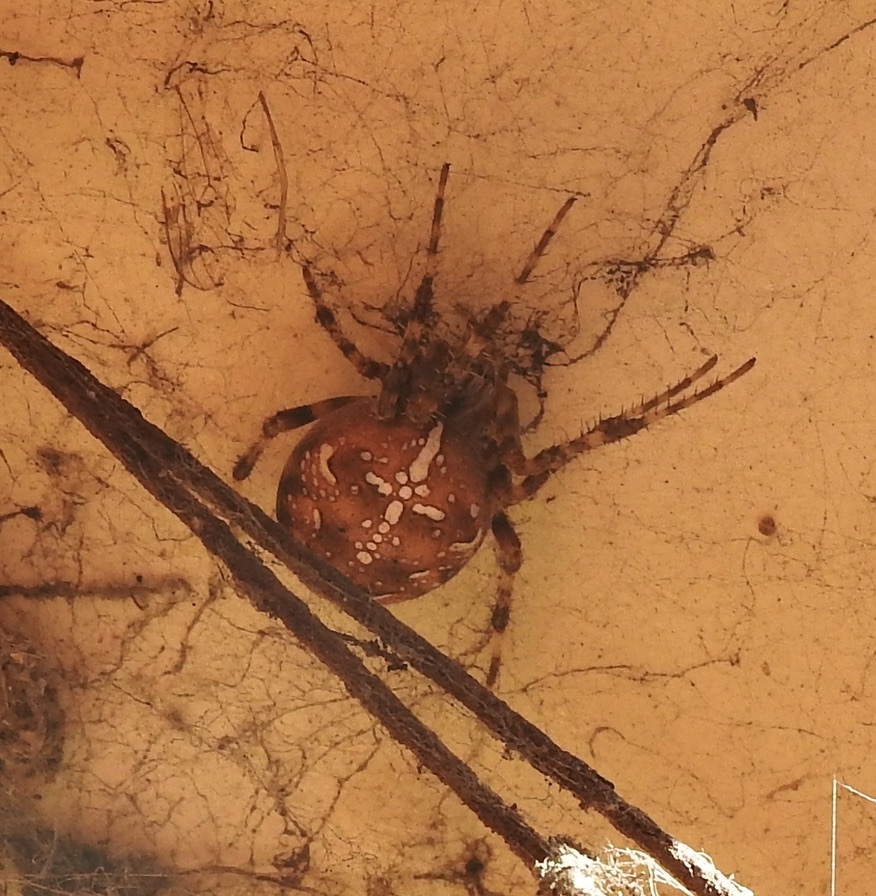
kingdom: Animalia
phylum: Arthropoda
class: Arachnida
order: Araneae
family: Araneidae
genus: Araneus
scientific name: Araneus diadematus
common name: Cross orbweaver
